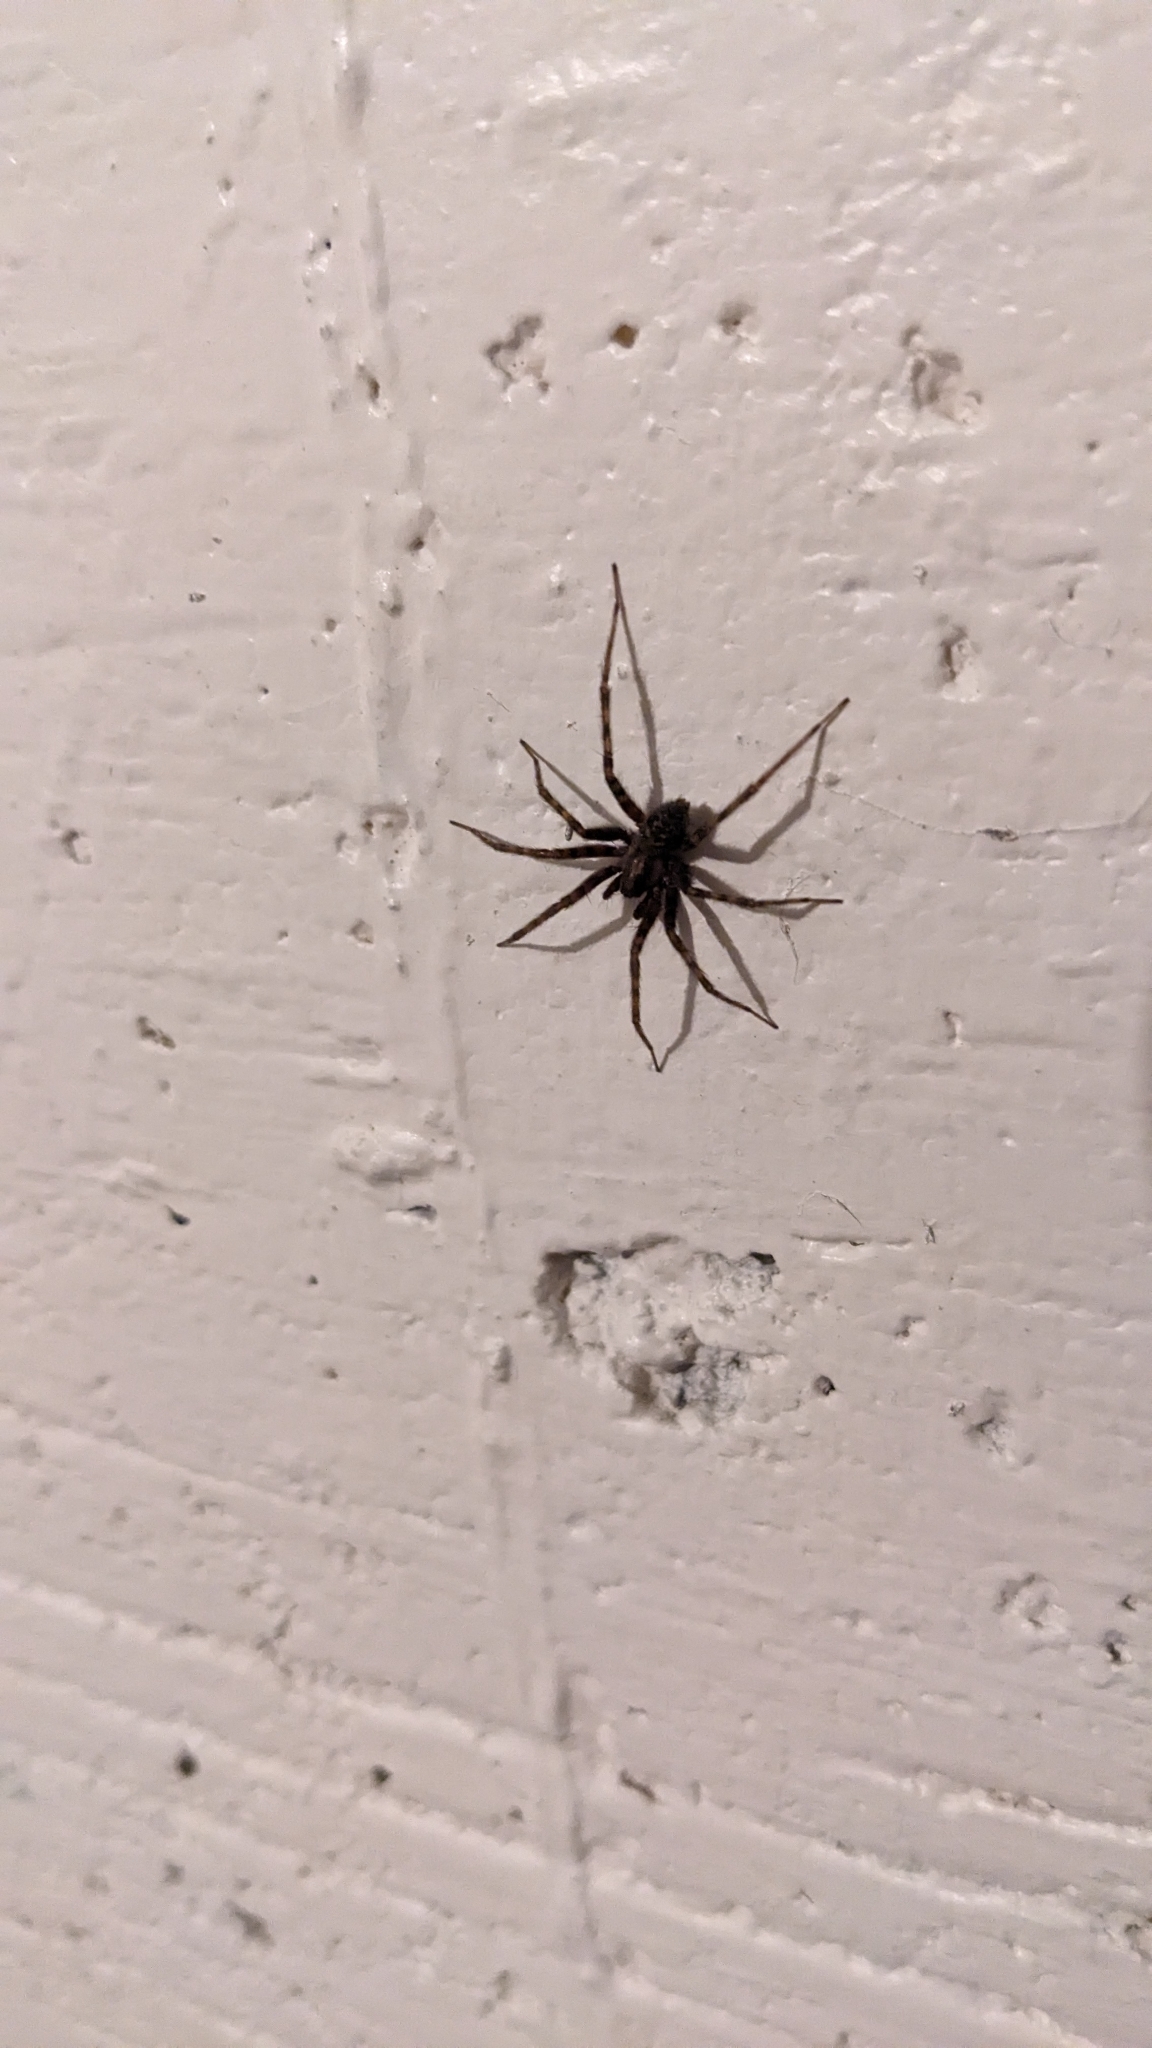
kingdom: Animalia
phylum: Arthropoda
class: Arachnida
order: Araneae
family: Agelenidae
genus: Tegenaria
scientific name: Tegenaria domestica
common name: Barn funnel weaver
